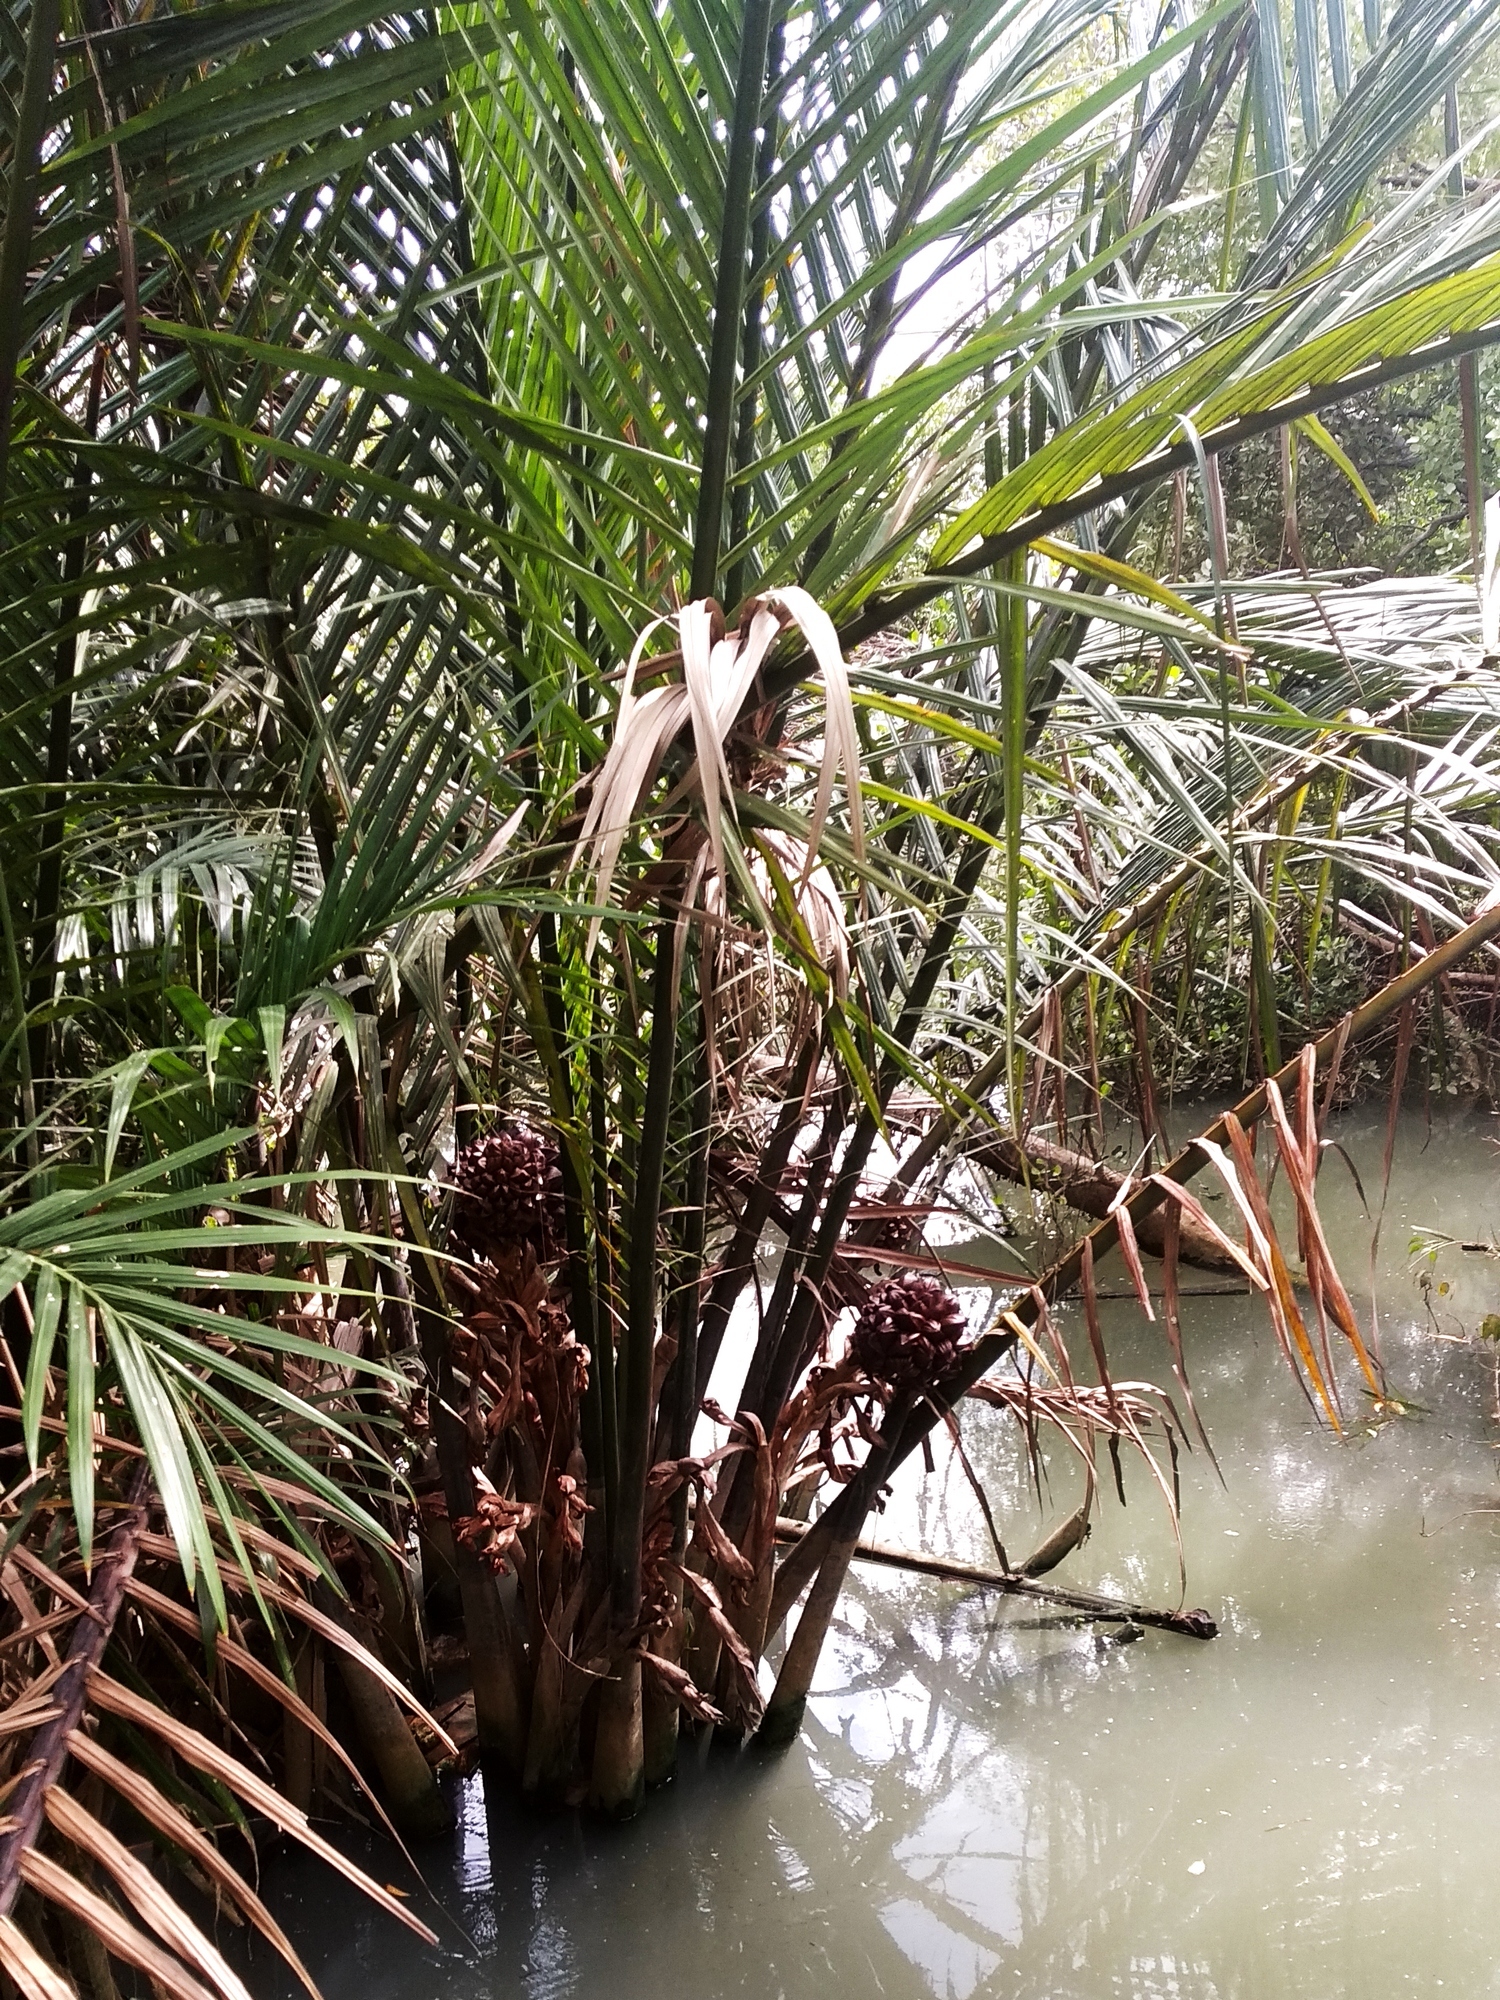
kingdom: Plantae
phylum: Tracheophyta
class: Liliopsida
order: Arecales
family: Arecaceae
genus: Nypa
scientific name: Nypa fruticans
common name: Mangrove palm
